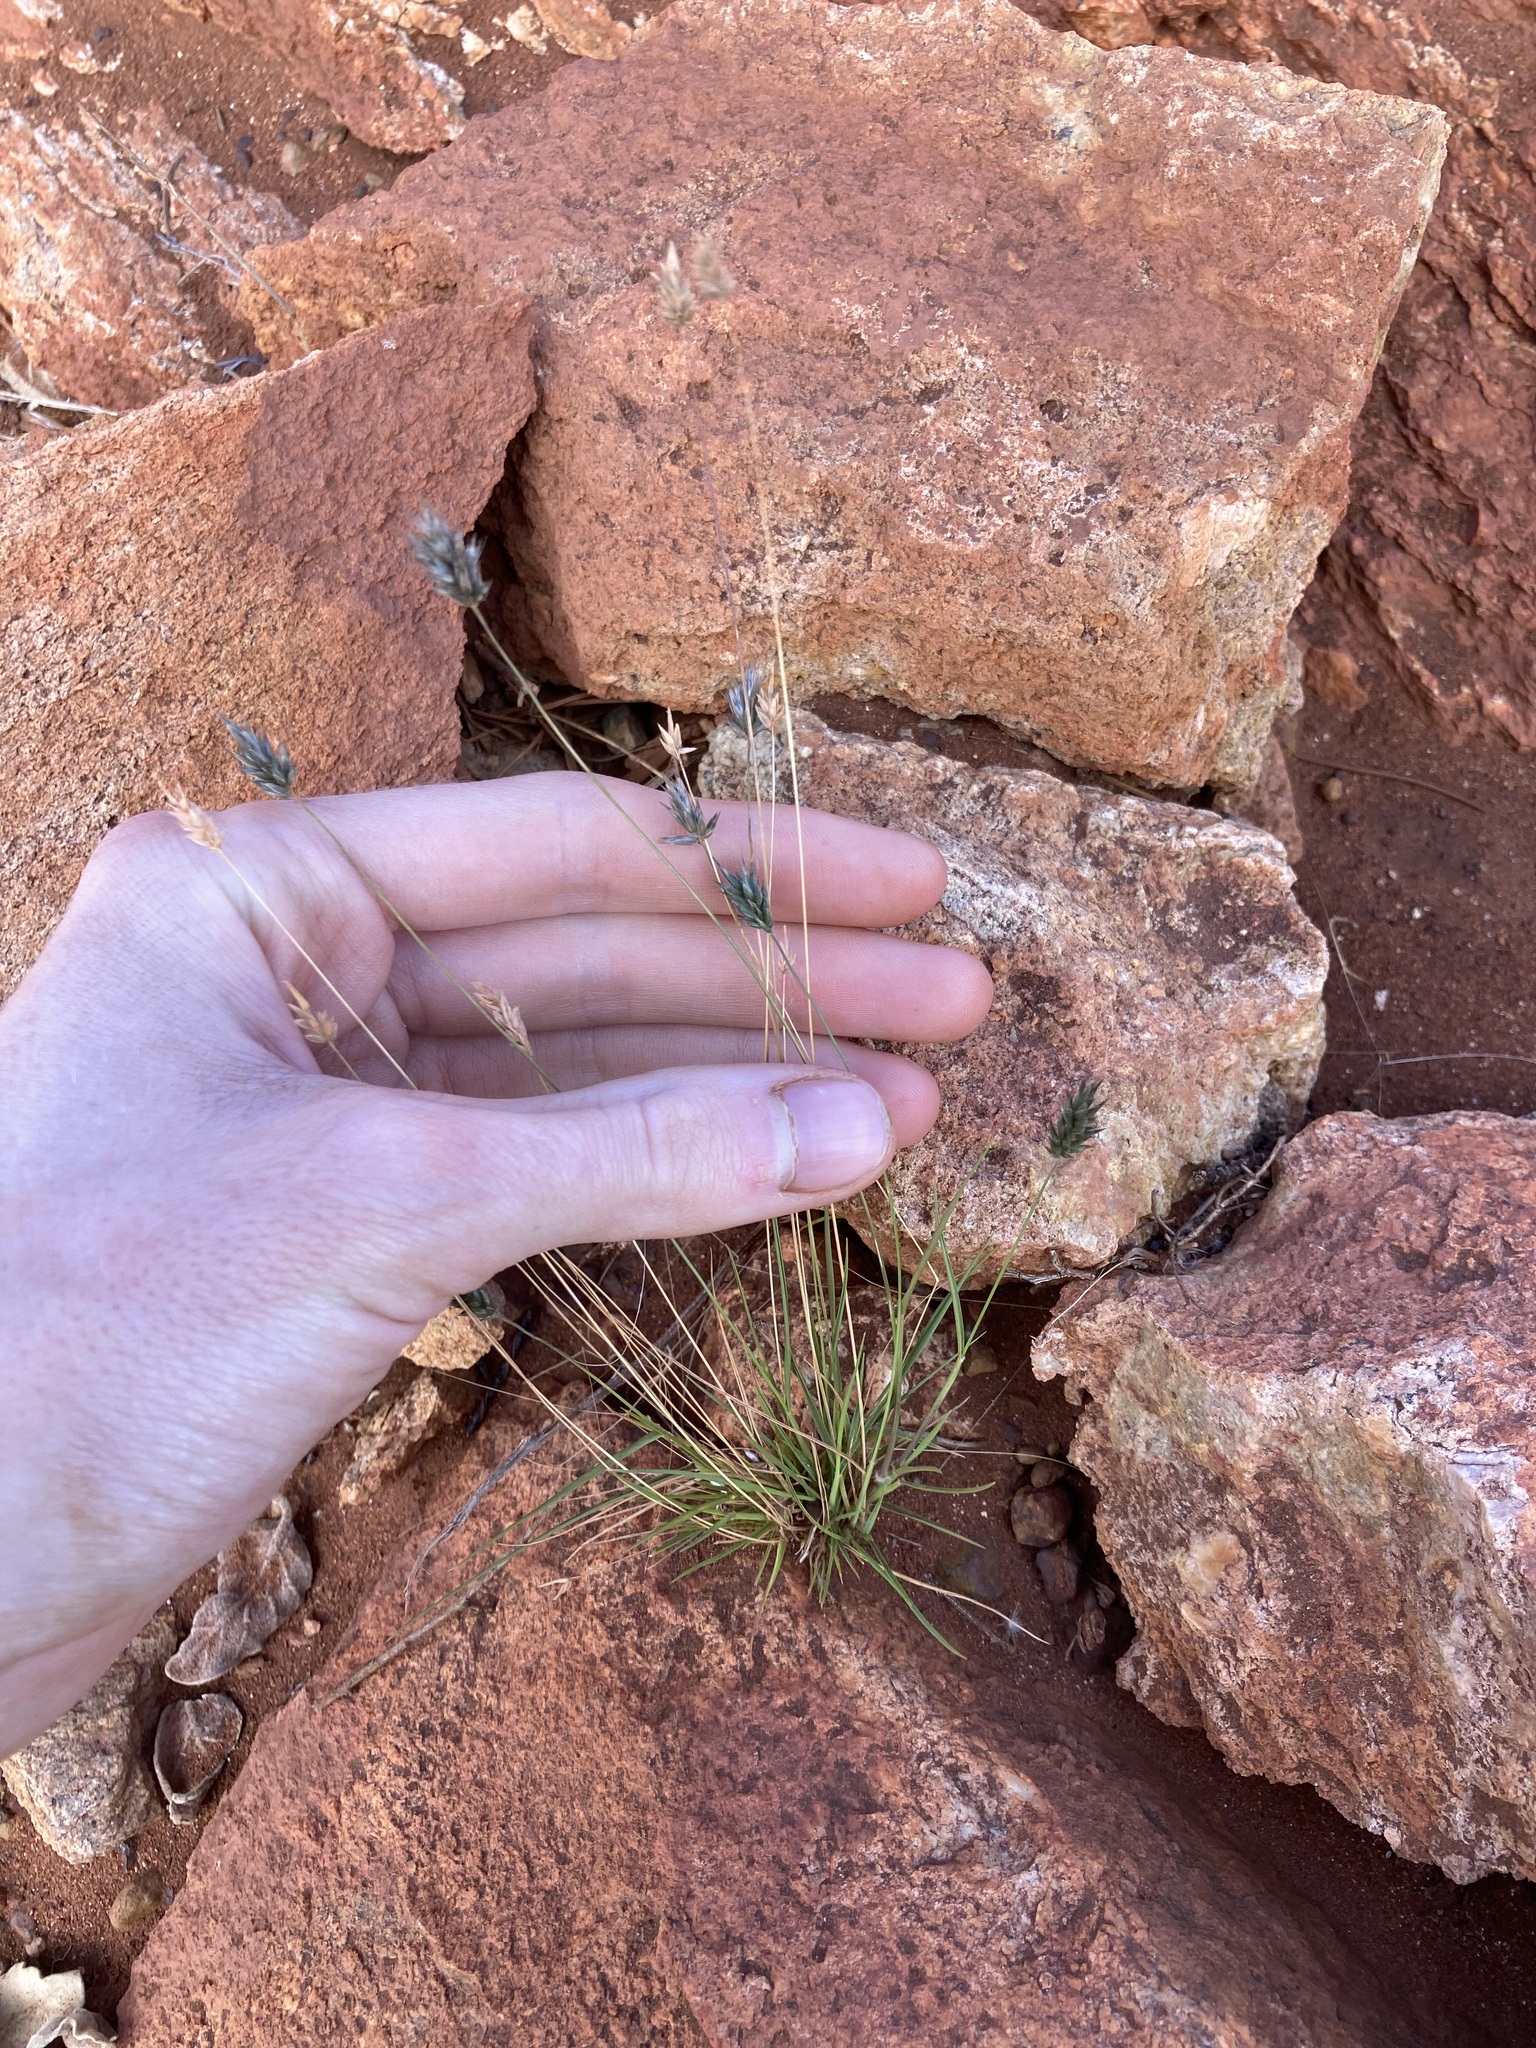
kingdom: Plantae
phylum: Tracheophyta
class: Liliopsida
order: Poales
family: Poaceae
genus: Neurachne
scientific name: Neurachne minor
